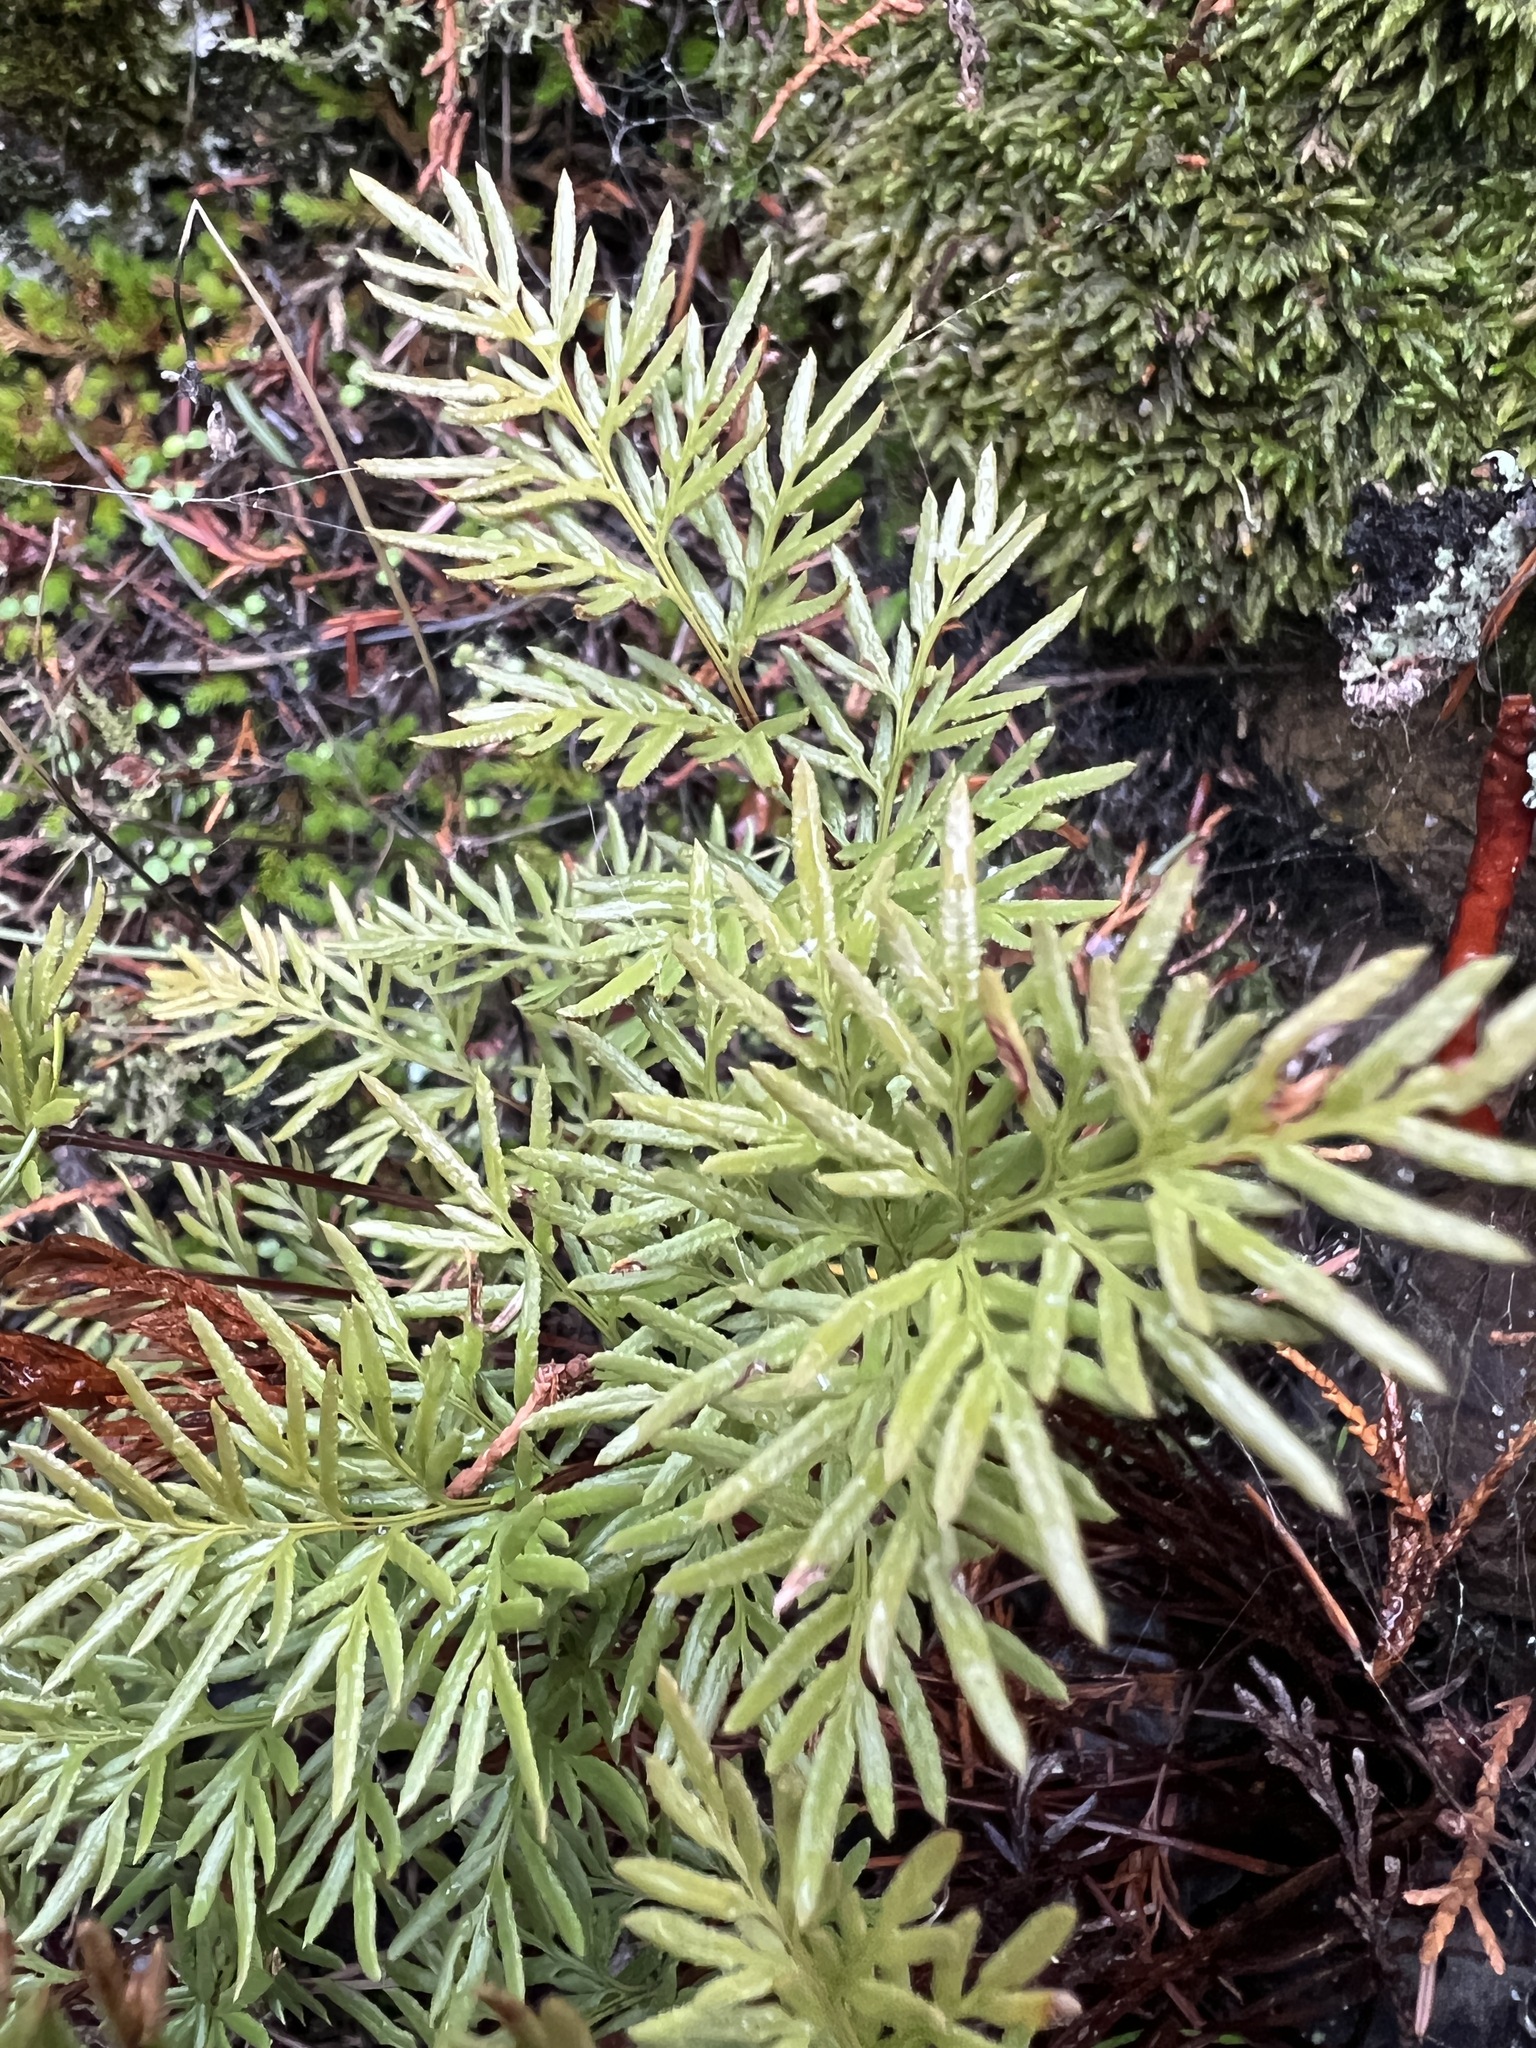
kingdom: Plantae
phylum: Tracheophyta
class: Polypodiopsida
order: Polypodiales
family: Pteridaceae
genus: Aspidotis
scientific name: Aspidotis densa
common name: Indian's dream
